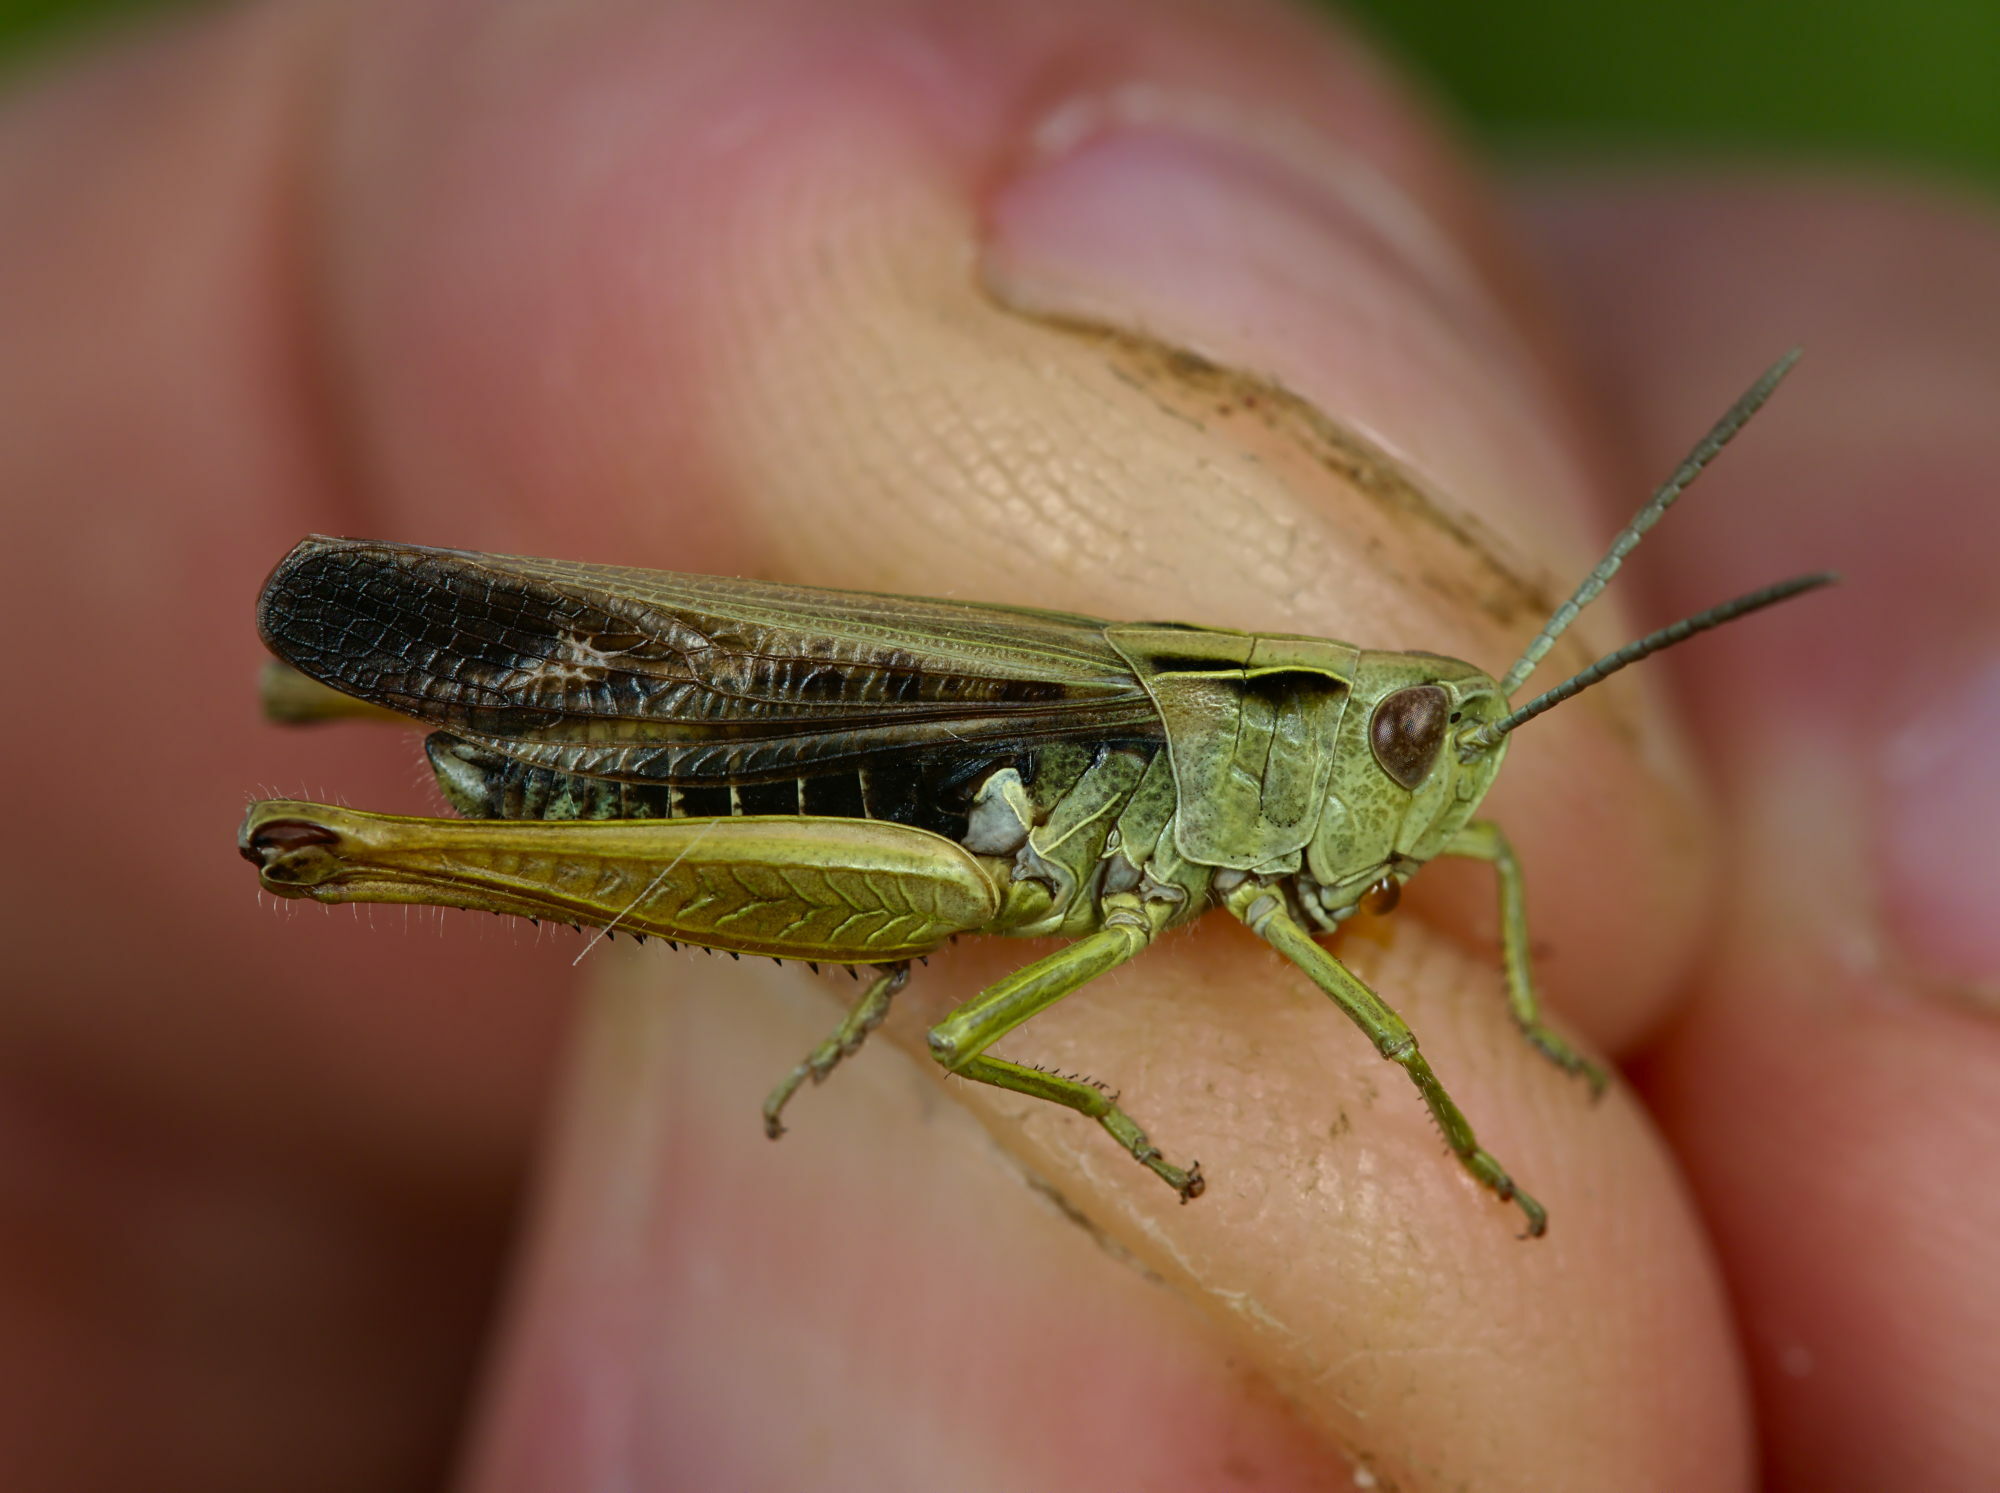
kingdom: Animalia
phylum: Arthropoda
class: Insecta
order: Orthoptera
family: Acrididae
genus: Omocestus
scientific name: Omocestus viridulus
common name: Common green grasshopper
